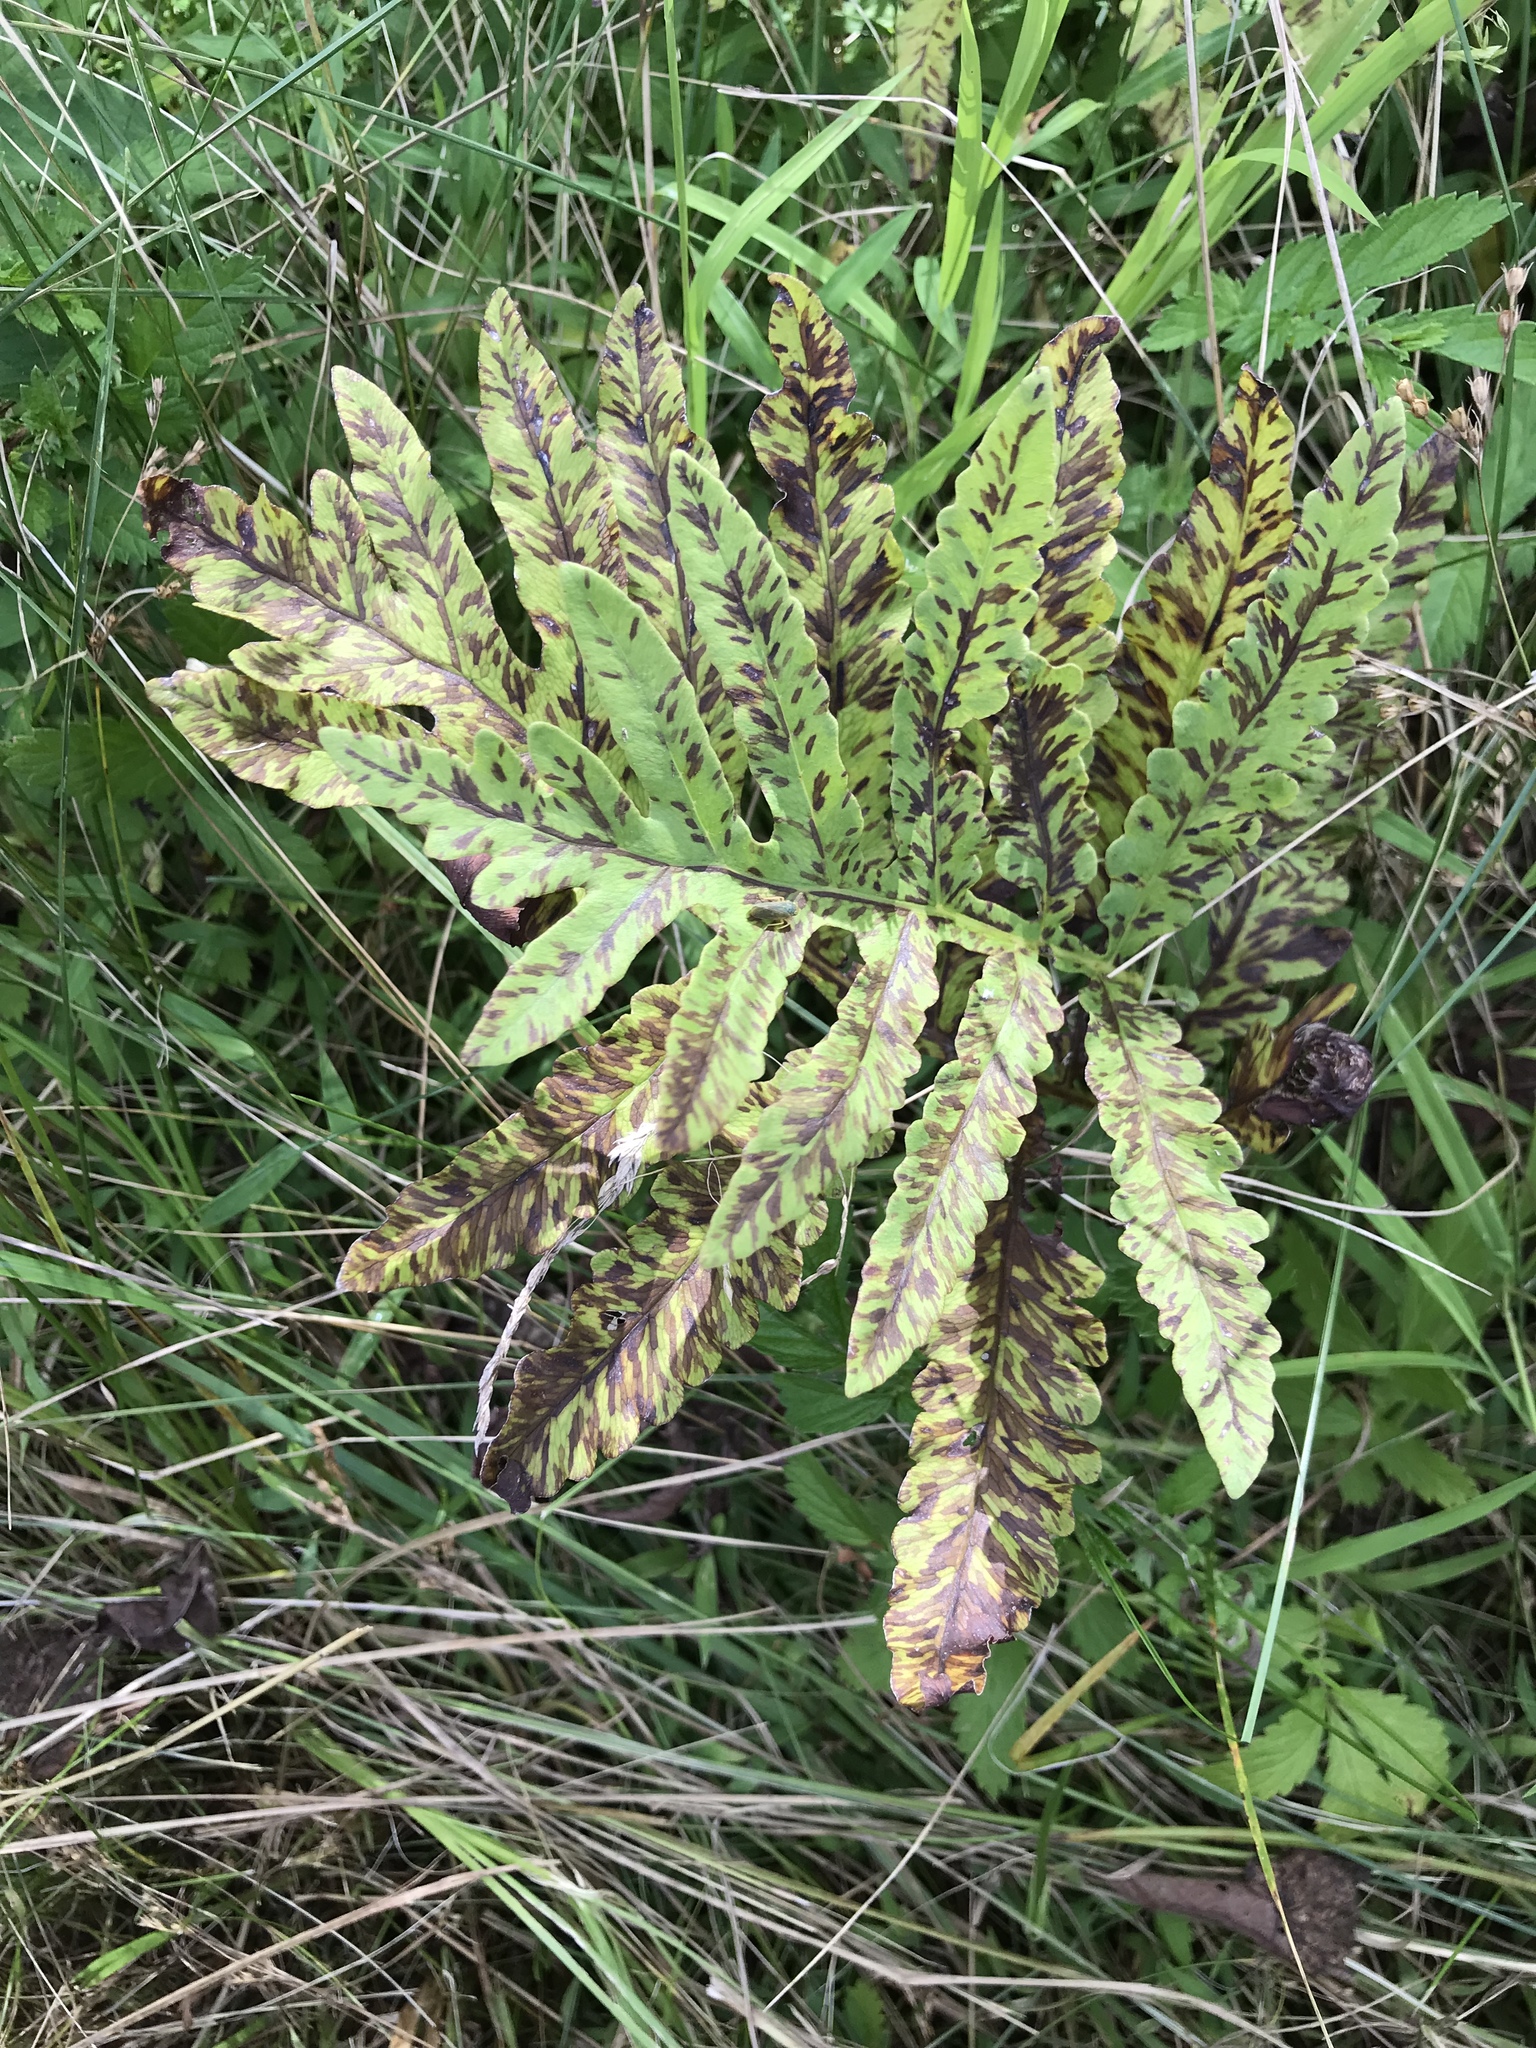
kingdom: Plantae
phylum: Tracheophyta
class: Polypodiopsida
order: Polypodiales
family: Onocleaceae
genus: Onoclea
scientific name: Onoclea sensibilis
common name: Sensitive fern
